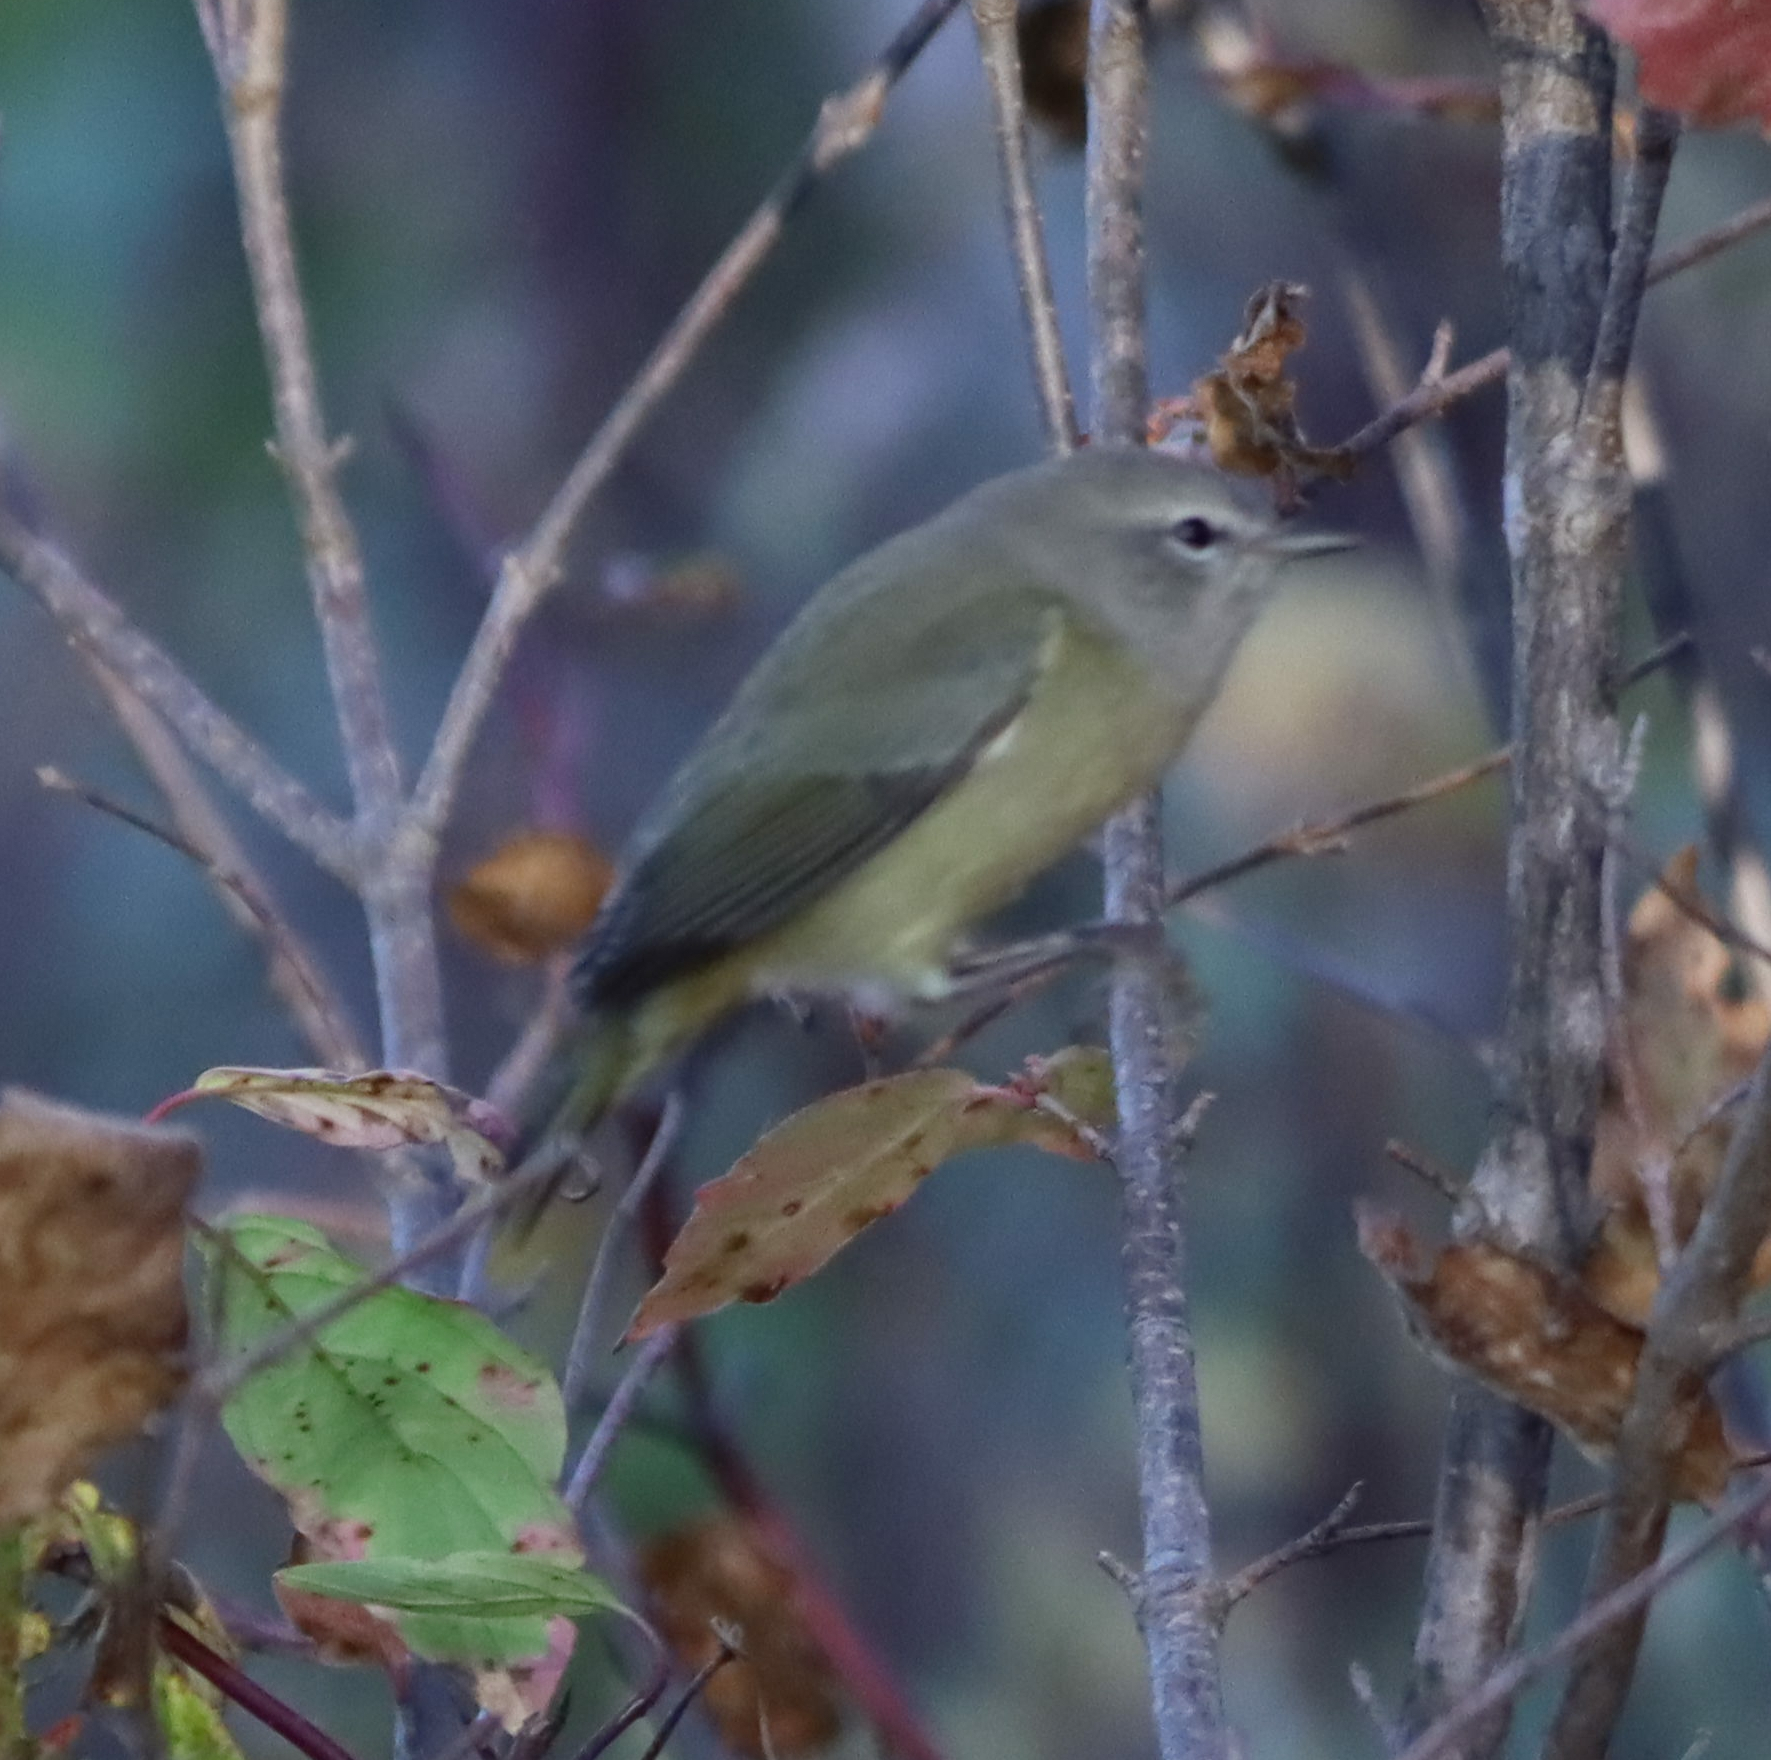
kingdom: Animalia
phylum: Chordata
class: Aves
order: Passeriformes
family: Parulidae
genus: Leiothlypis
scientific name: Leiothlypis celata
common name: Orange-crowned warbler
